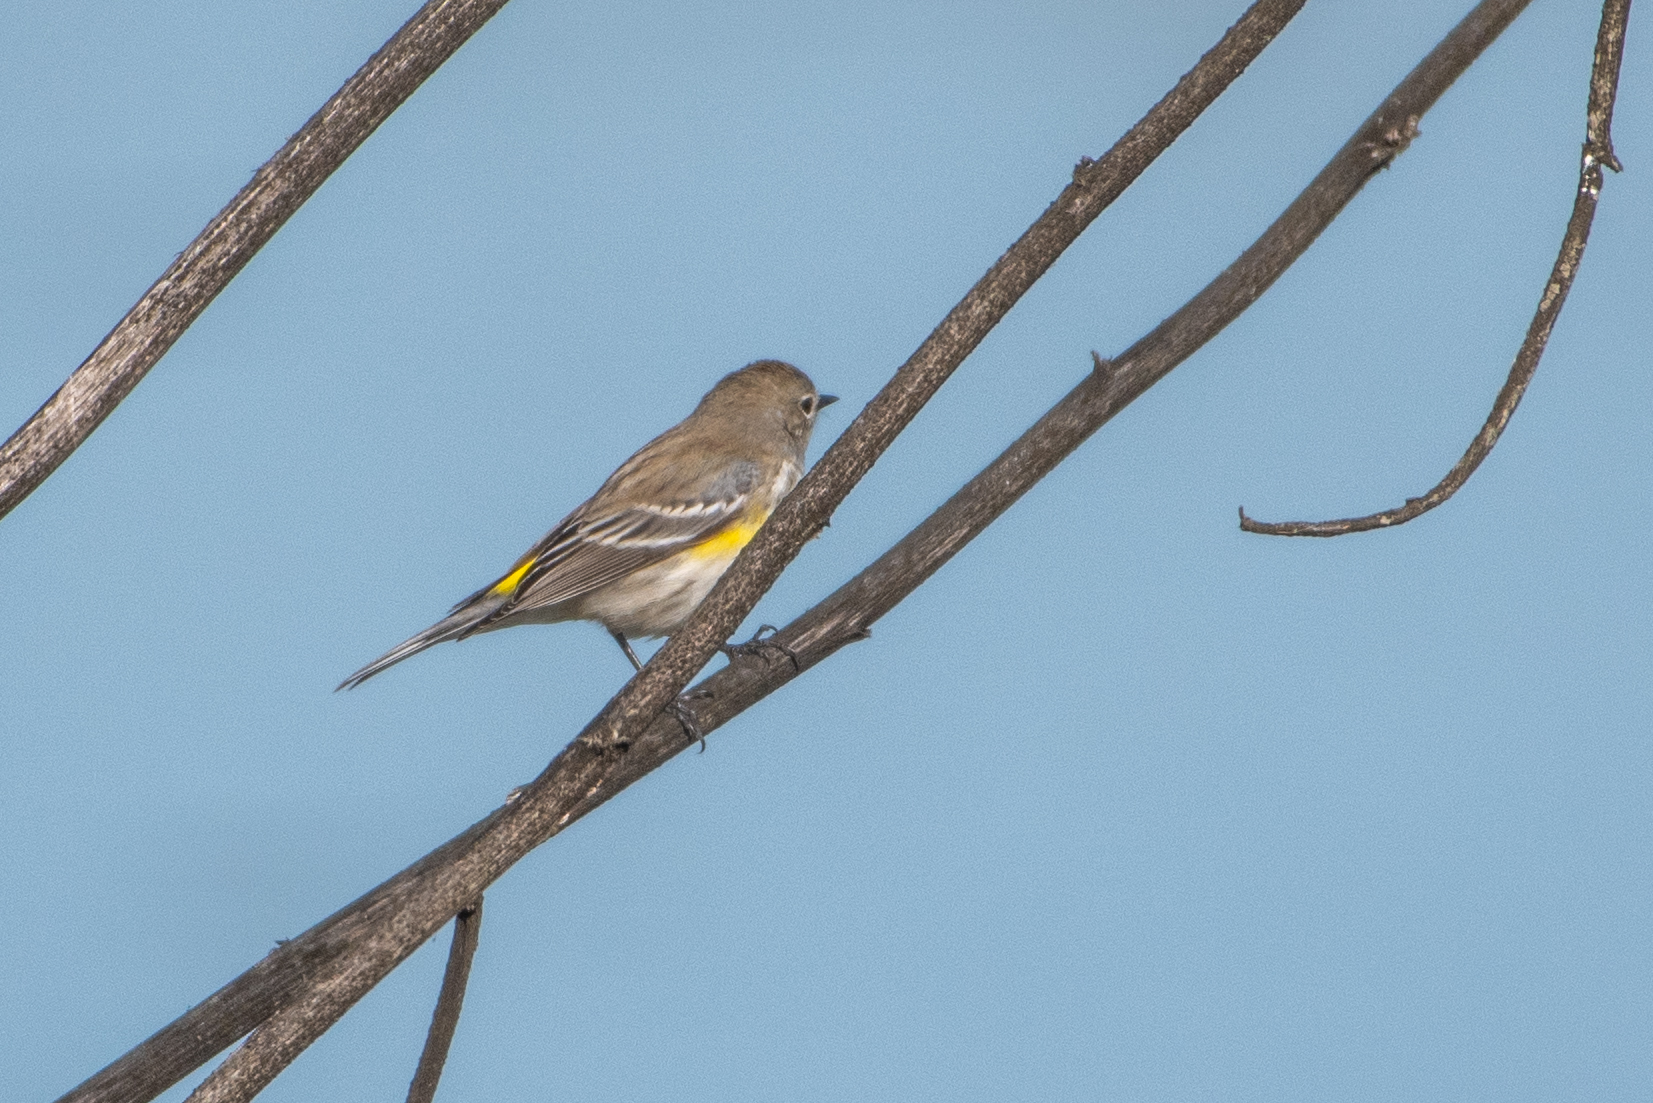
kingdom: Animalia
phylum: Chordata
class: Aves
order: Passeriformes
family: Parulidae
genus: Setophaga
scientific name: Setophaga coronata
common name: Myrtle warbler
